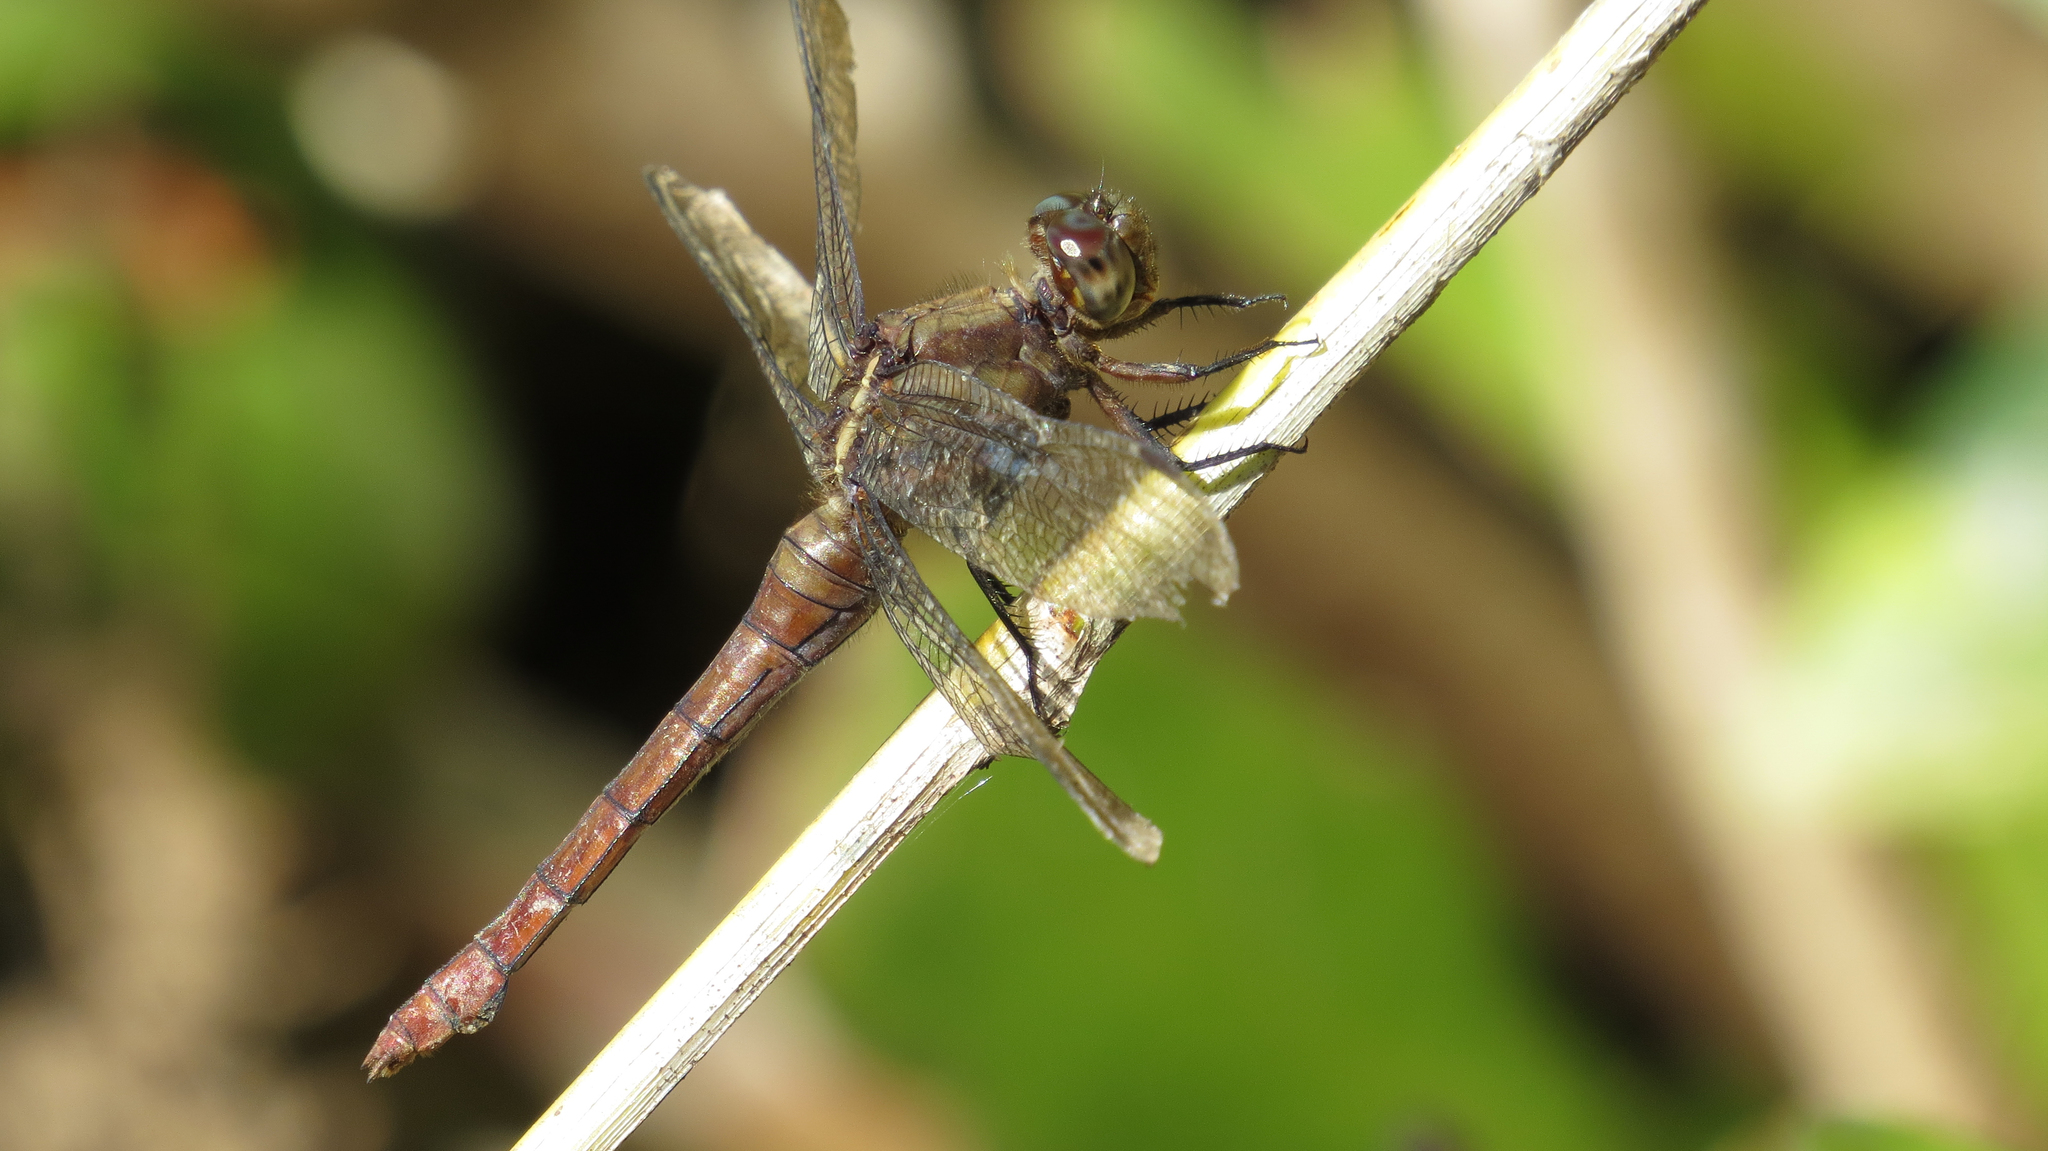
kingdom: Animalia
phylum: Arthropoda
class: Insecta
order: Odonata
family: Libellulidae
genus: Orthetrum
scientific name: Orthetrum villosovittatum
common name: Firery skimmer
